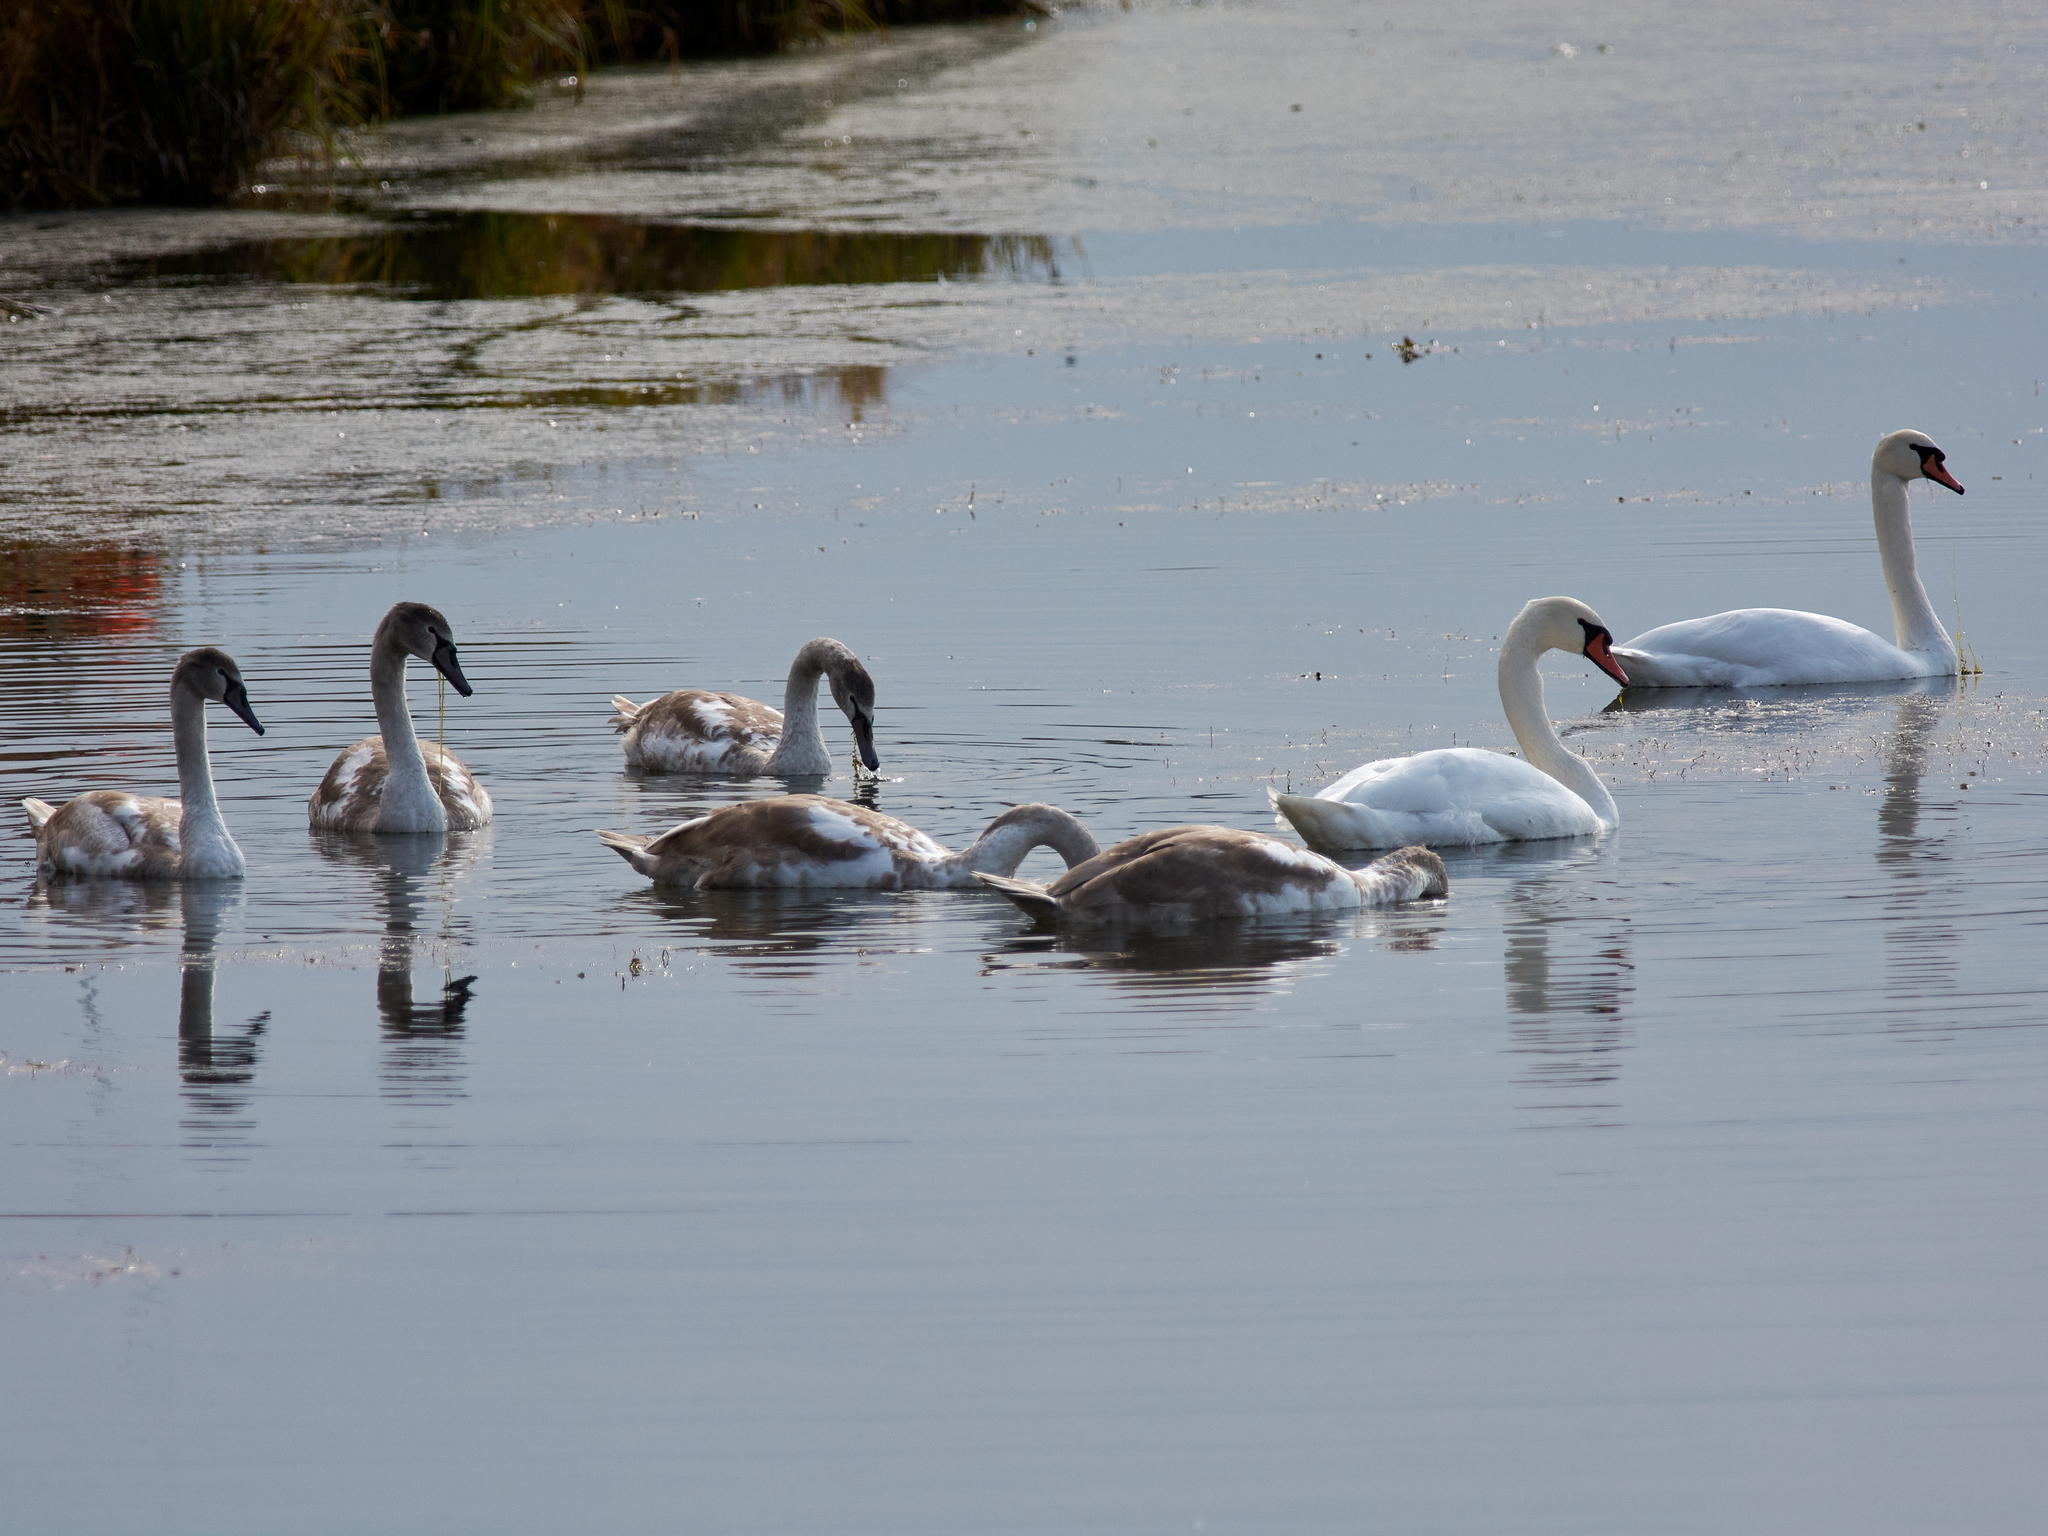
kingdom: Animalia
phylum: Chordata
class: Aves
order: Anseriformes
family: Anatidae
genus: Cygnus
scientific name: Cygnus olor
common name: Mute swan
